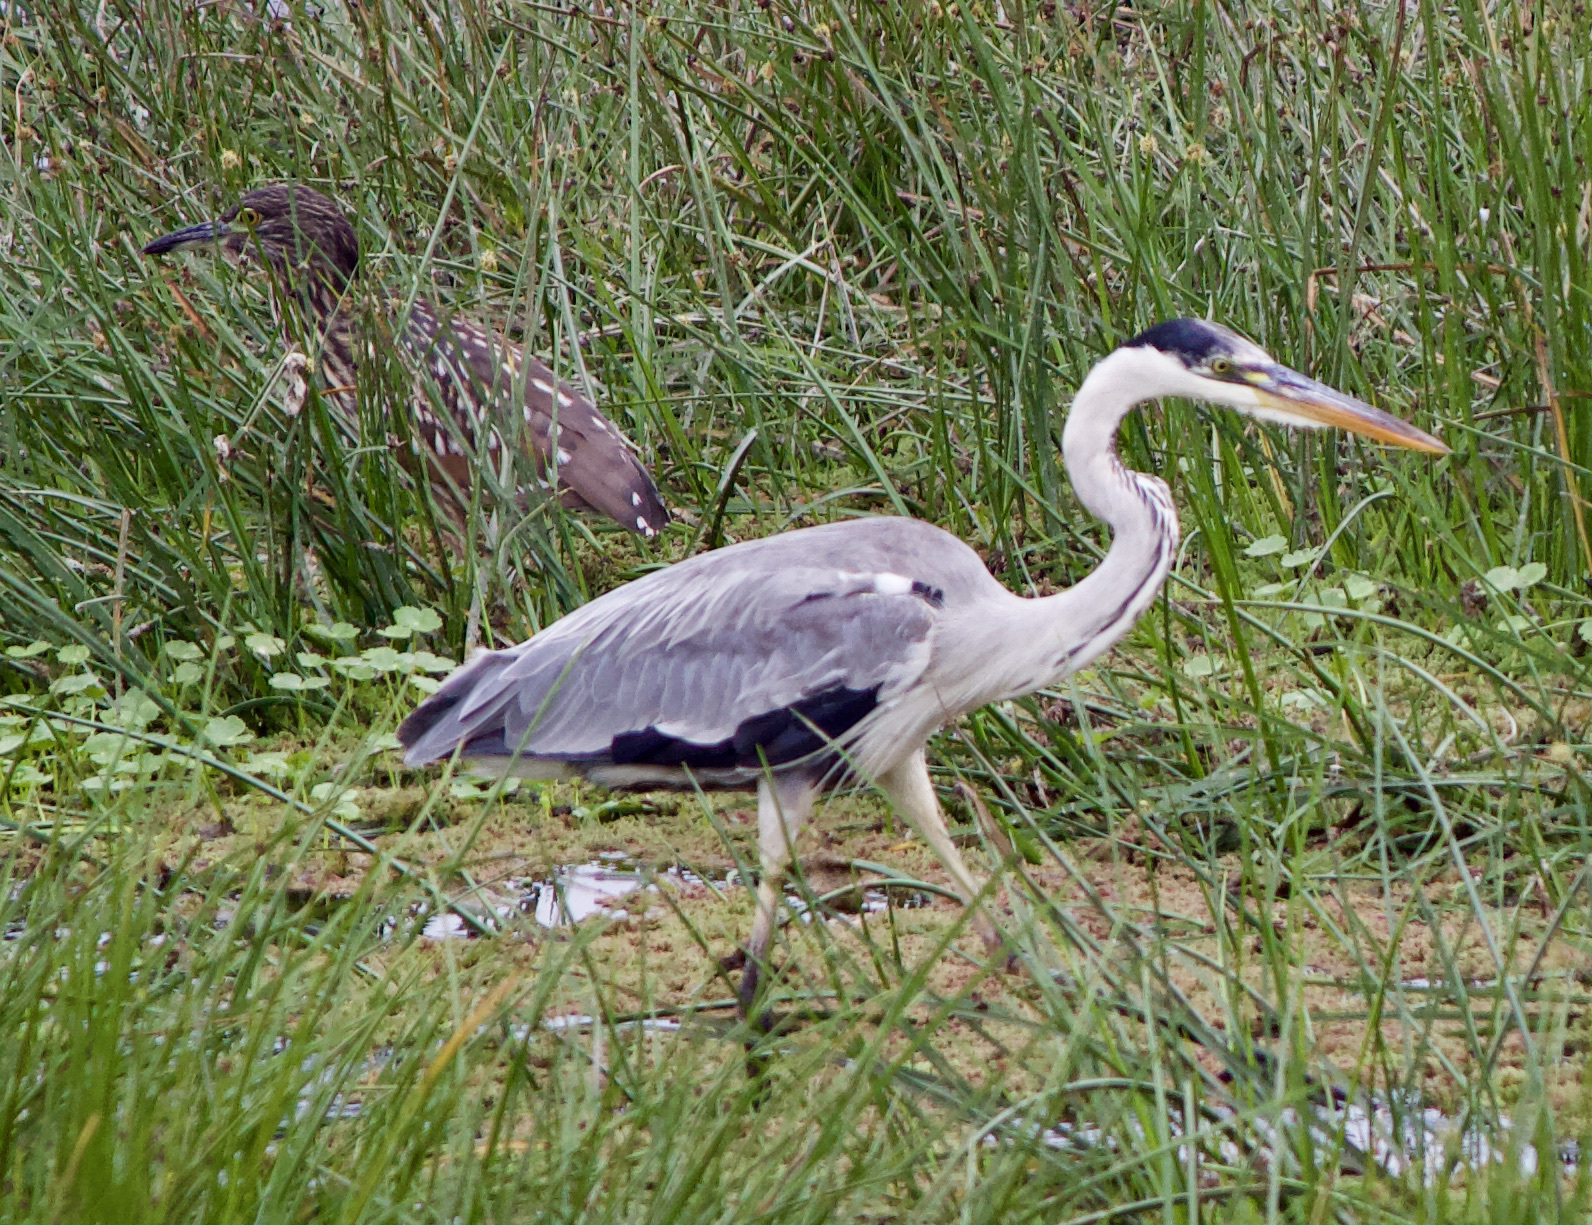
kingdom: Animalia
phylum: Chordata
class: Aves
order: Pelecaniformes
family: Ardeidae
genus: Ardea
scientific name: Ardea cocoi
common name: Cocoi heron
